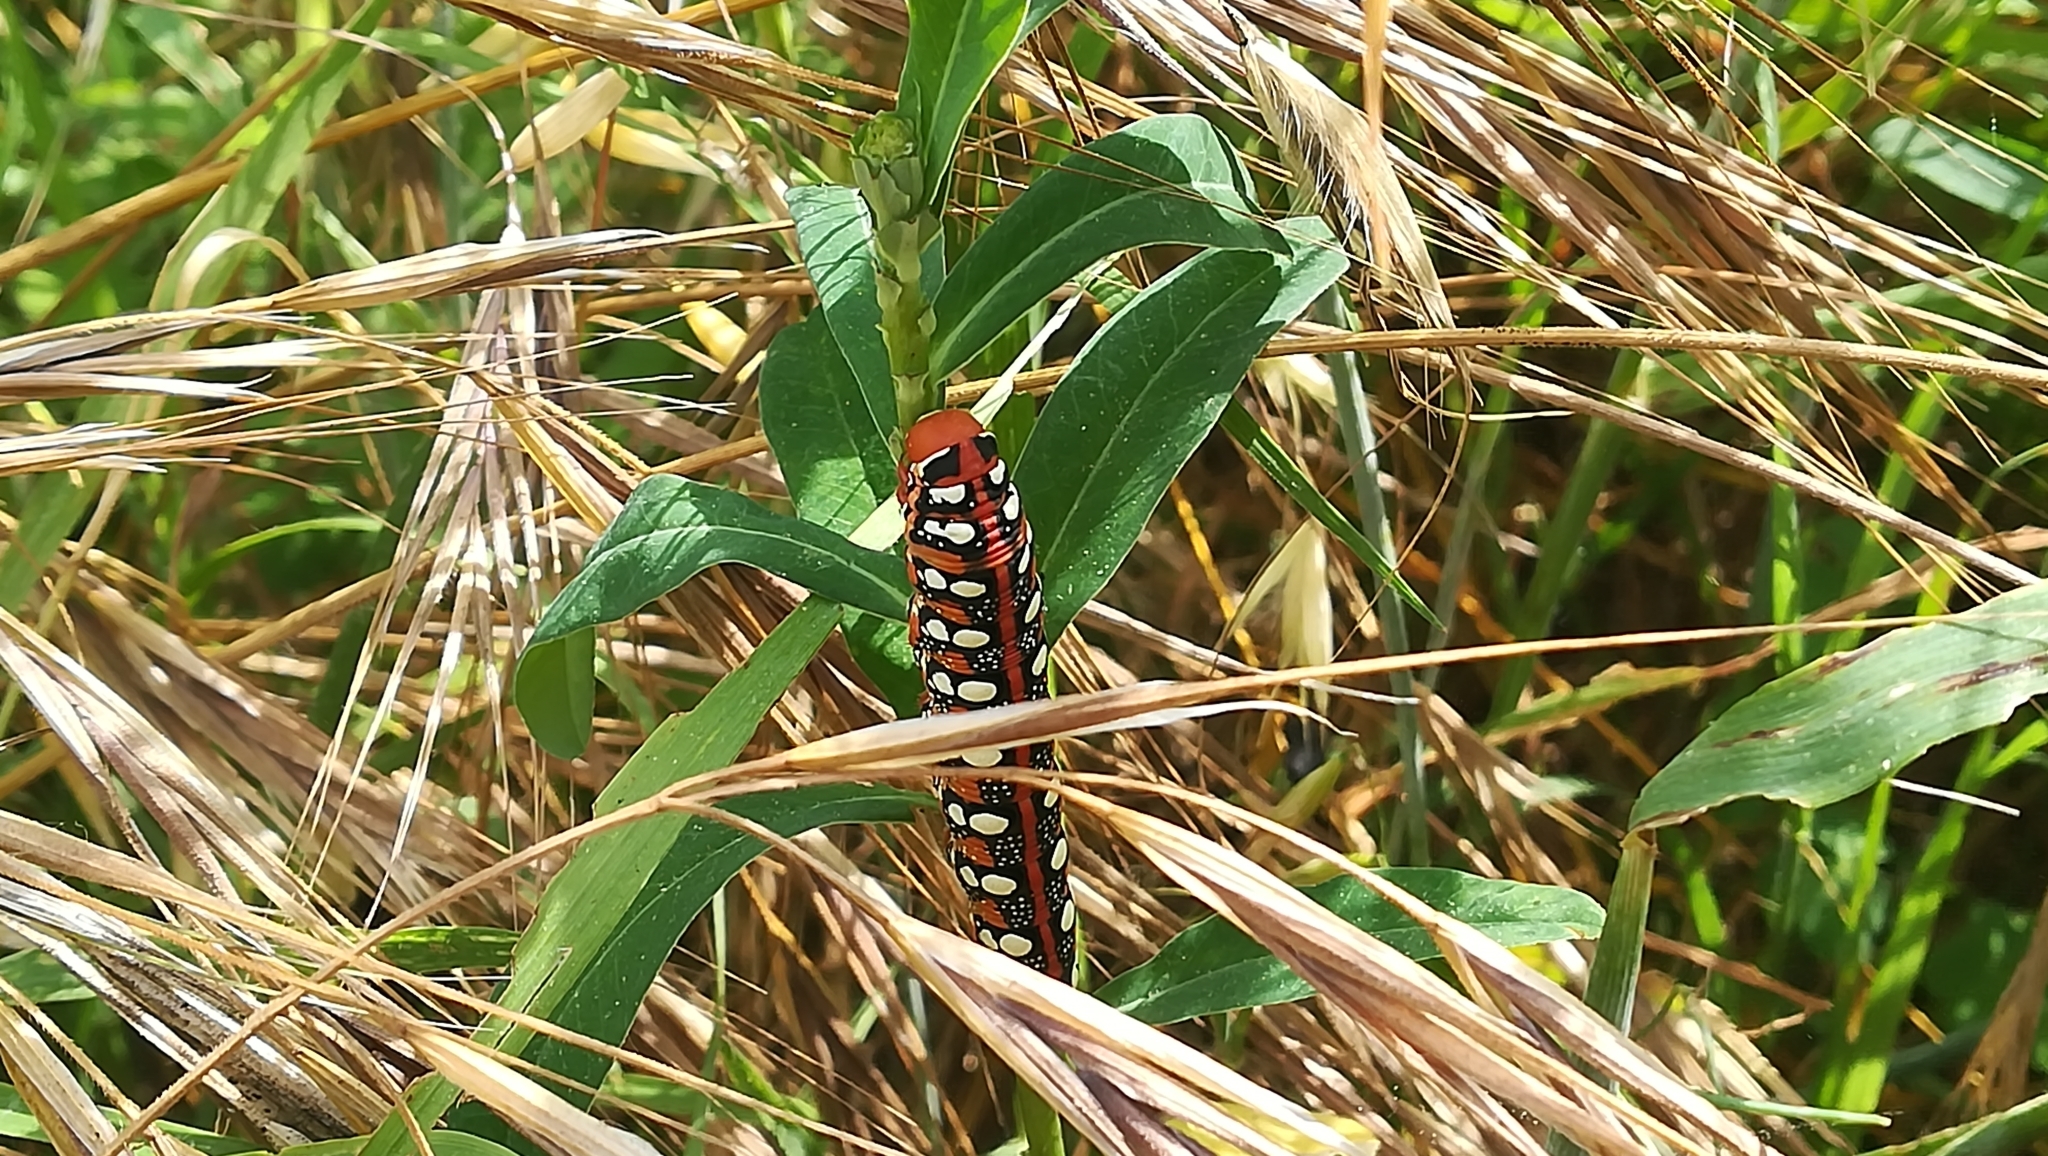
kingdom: Animalia
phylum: Arthropoda
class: Insecta
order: Lepidoptera
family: Sphingidae
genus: Hyles
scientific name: Hyles euphorbiae
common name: Spurge hawk-moth
